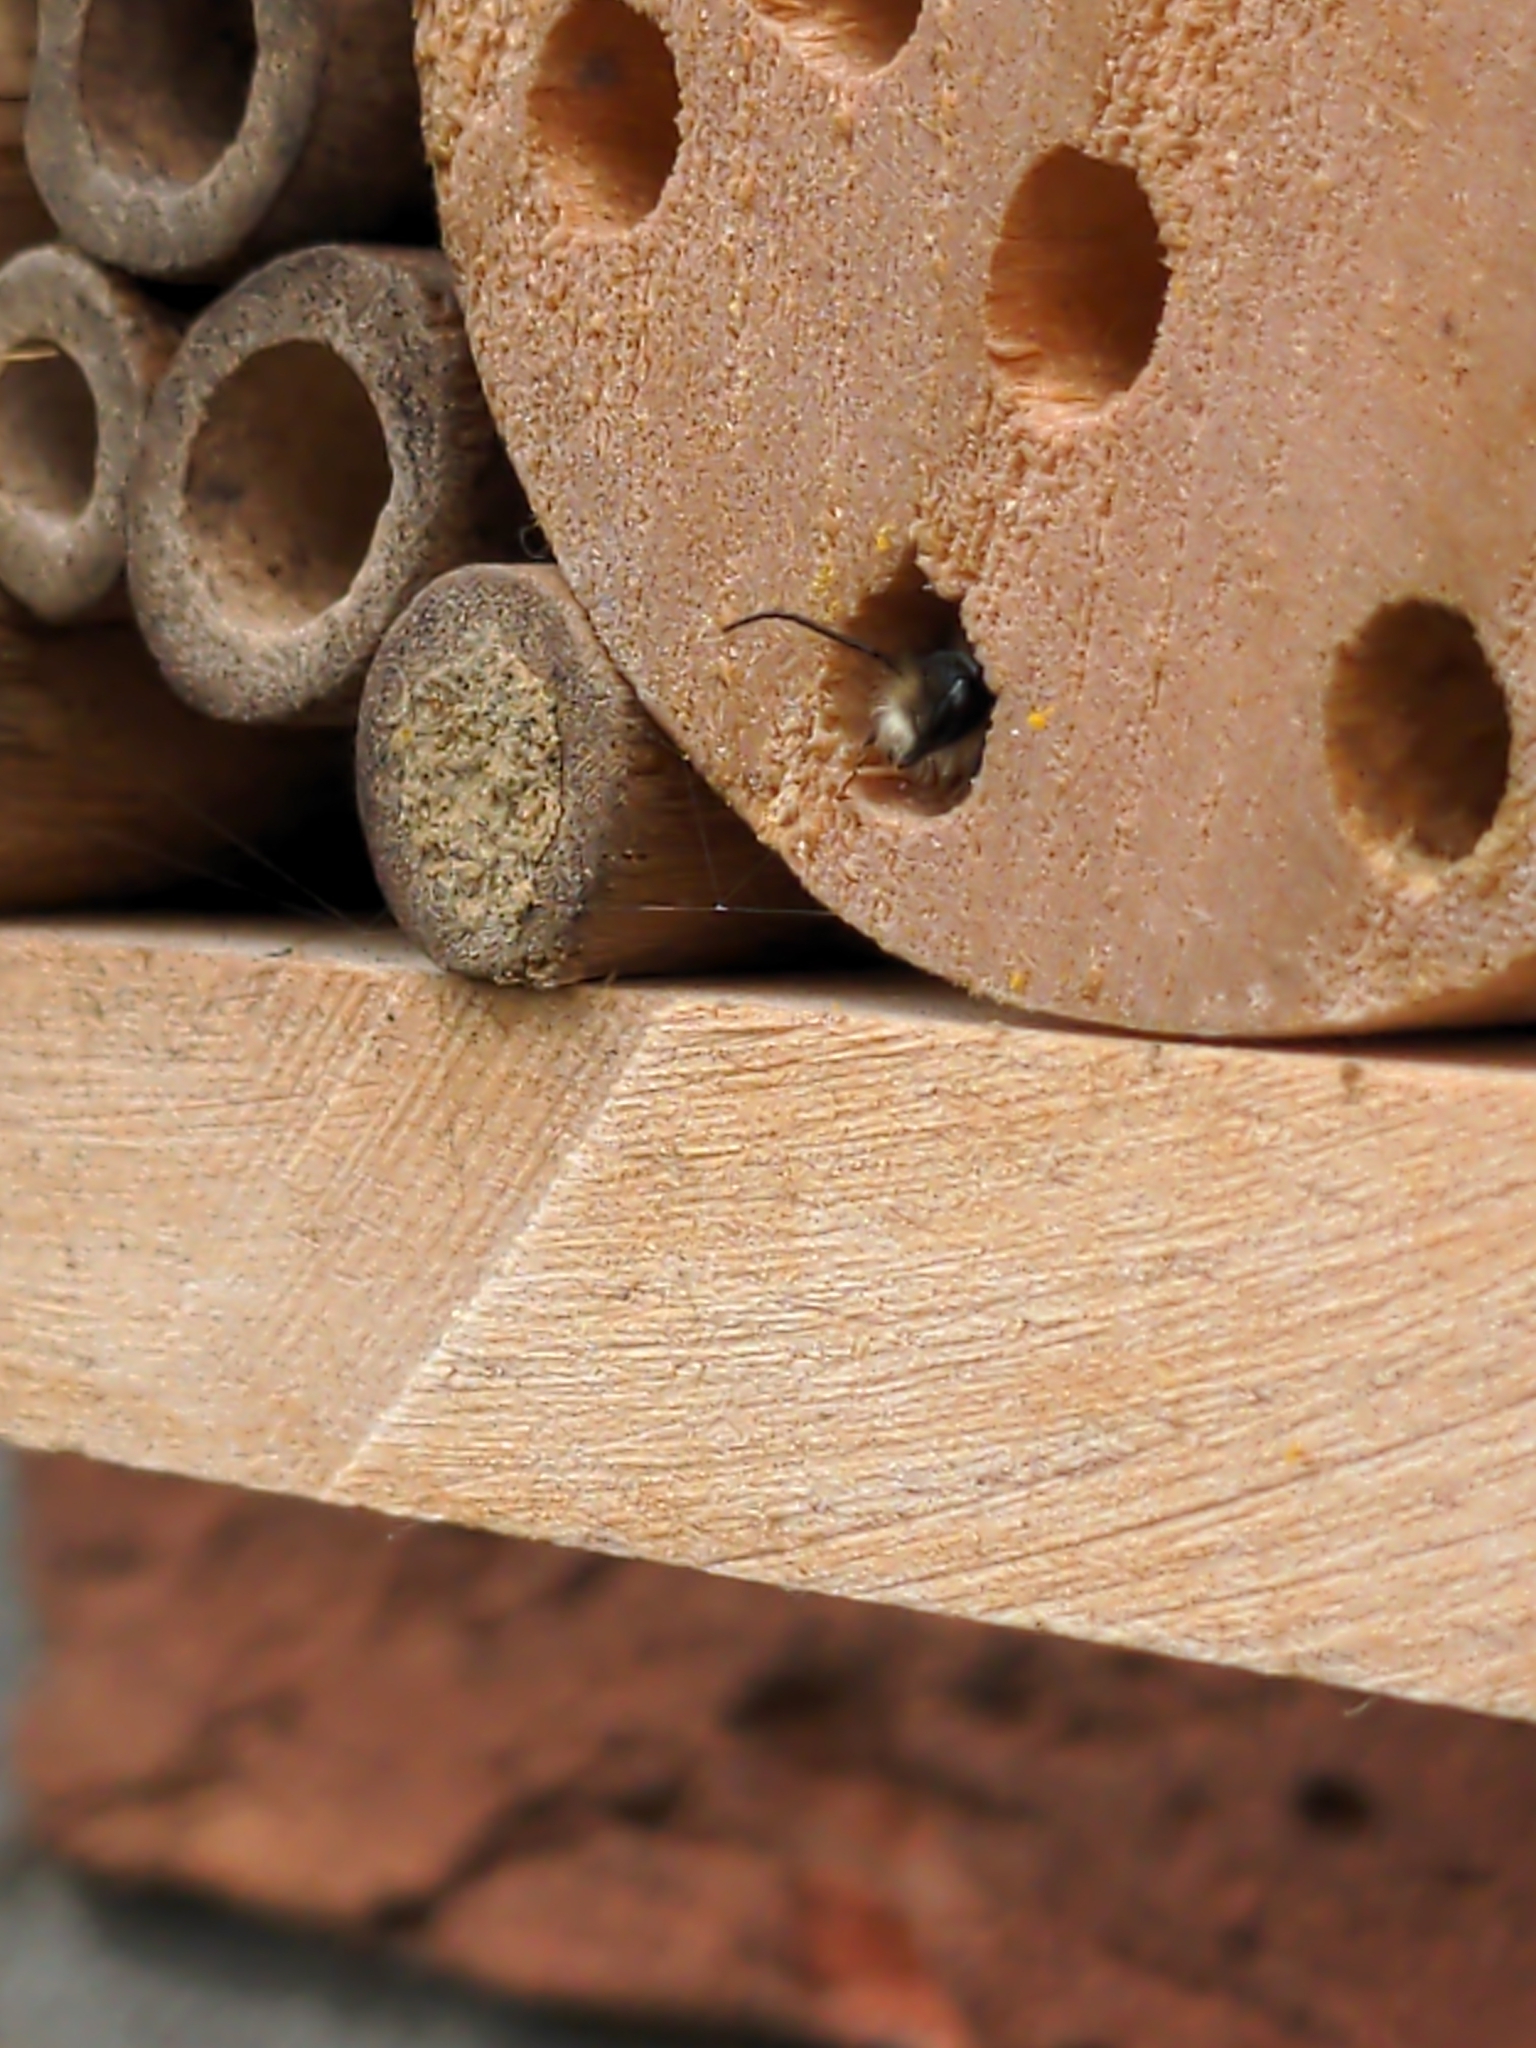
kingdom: Animalia
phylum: Arthropoda
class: Insecta
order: Hymenoptera
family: Megachilidae
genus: Osmia
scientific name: Osmia cornuta
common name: Mason bee
